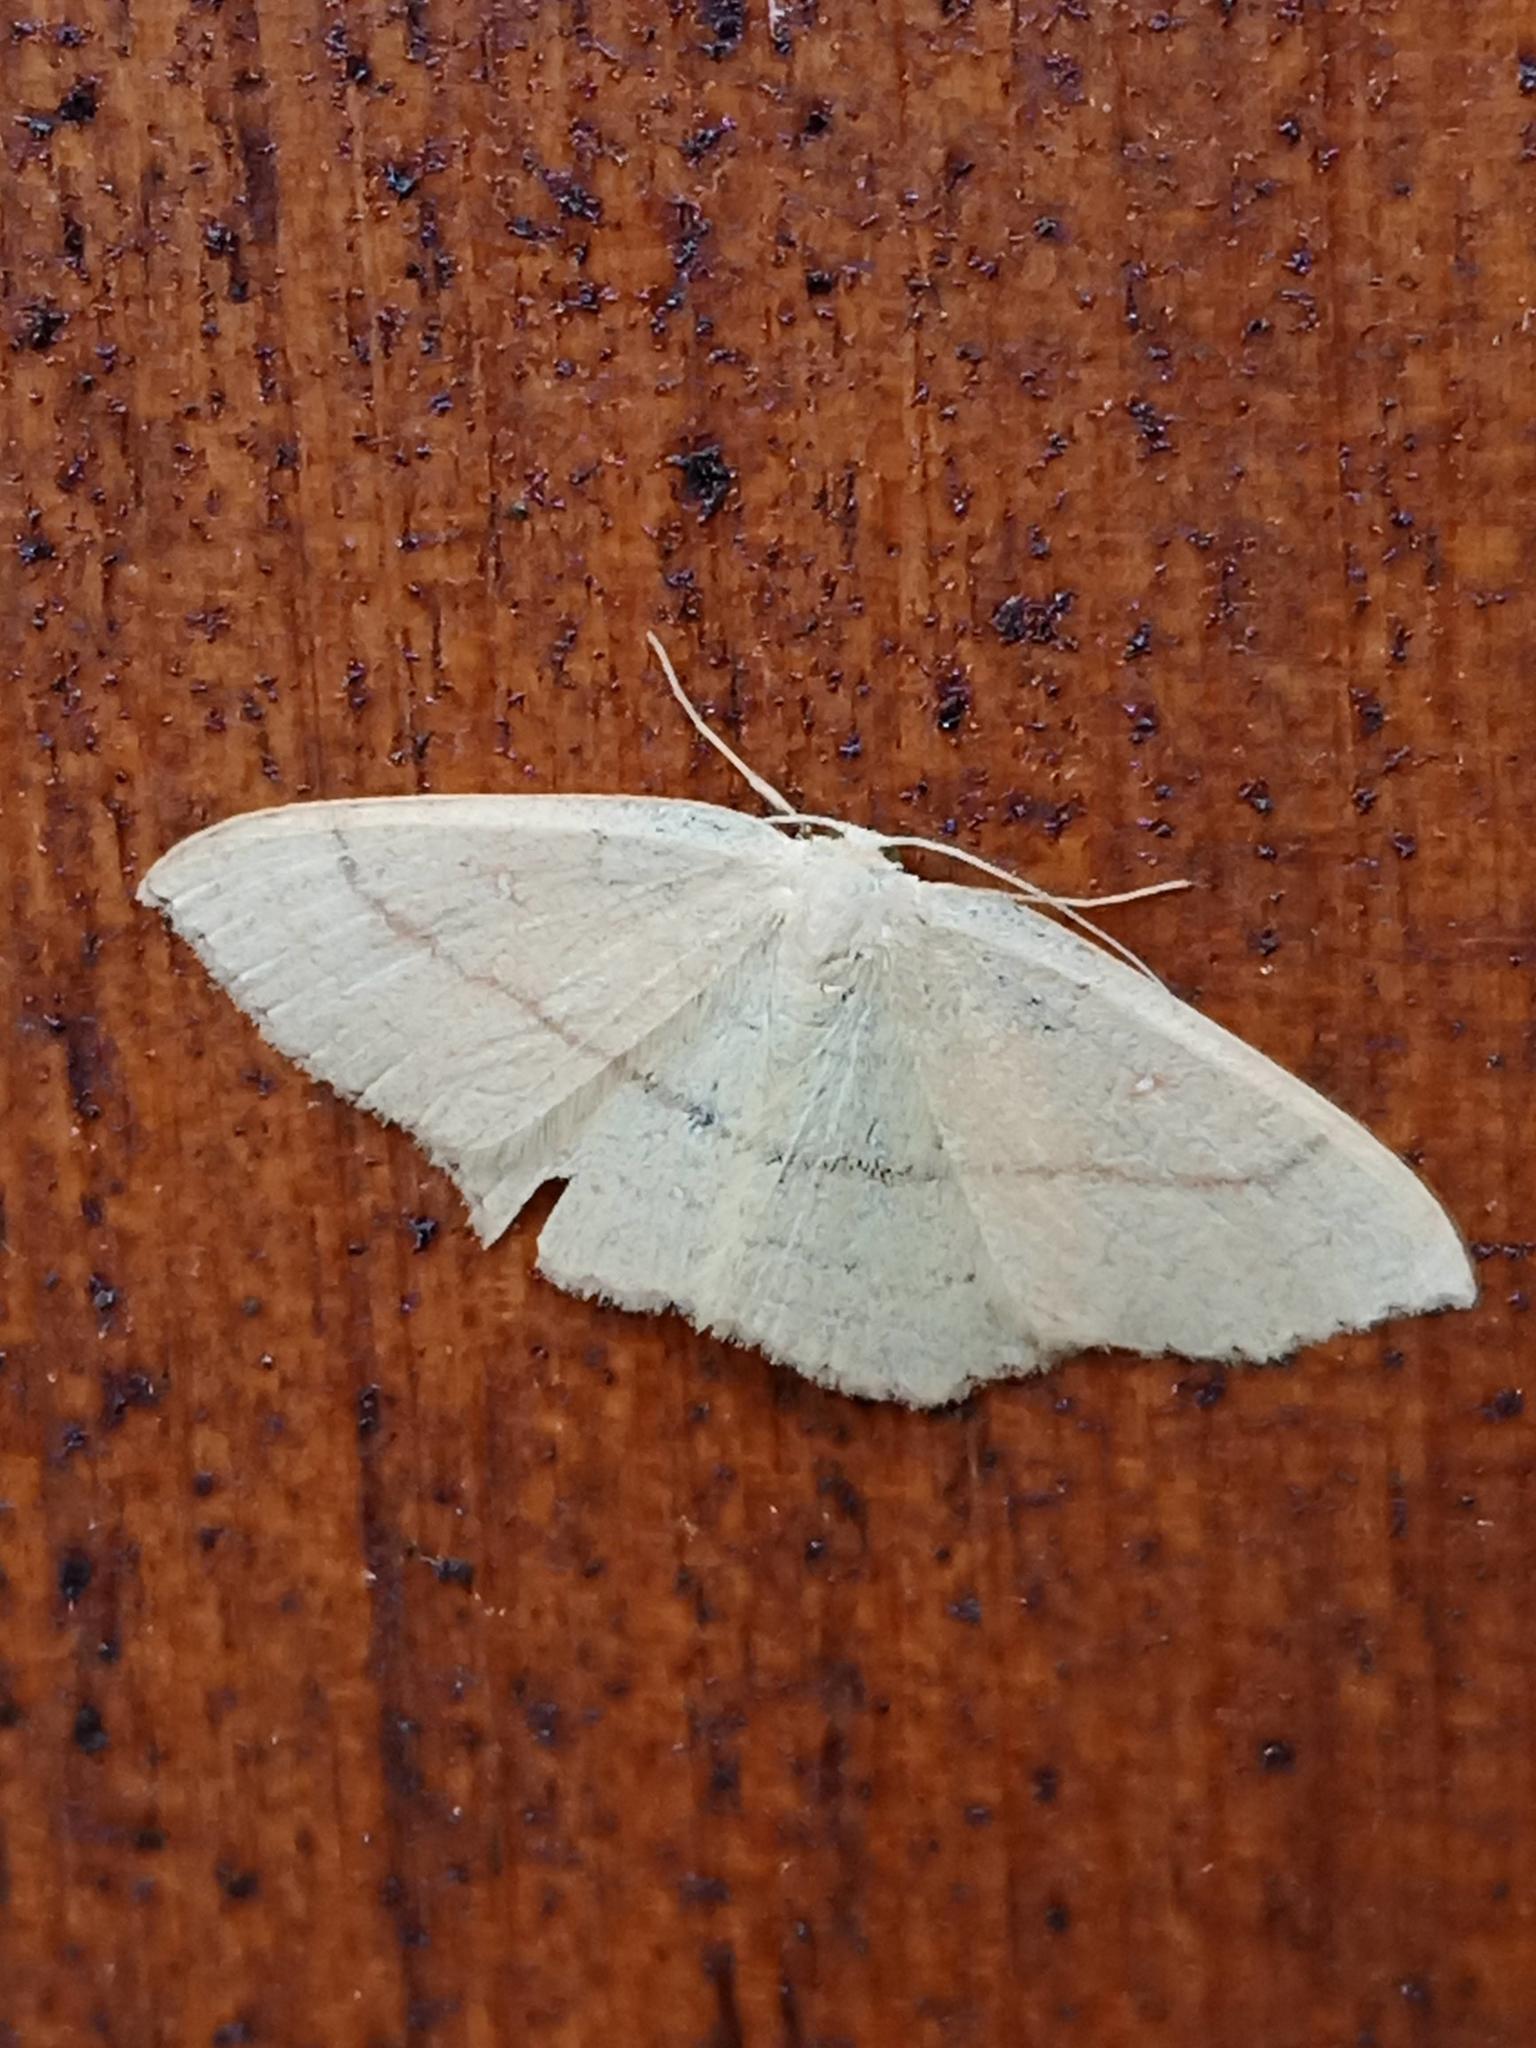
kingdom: Animalia
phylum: Arthropoda
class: Insecta
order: Lepidoptera
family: Geometridae
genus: Cyclophora
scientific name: Cyclophora linearia
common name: Clay triple-lines
